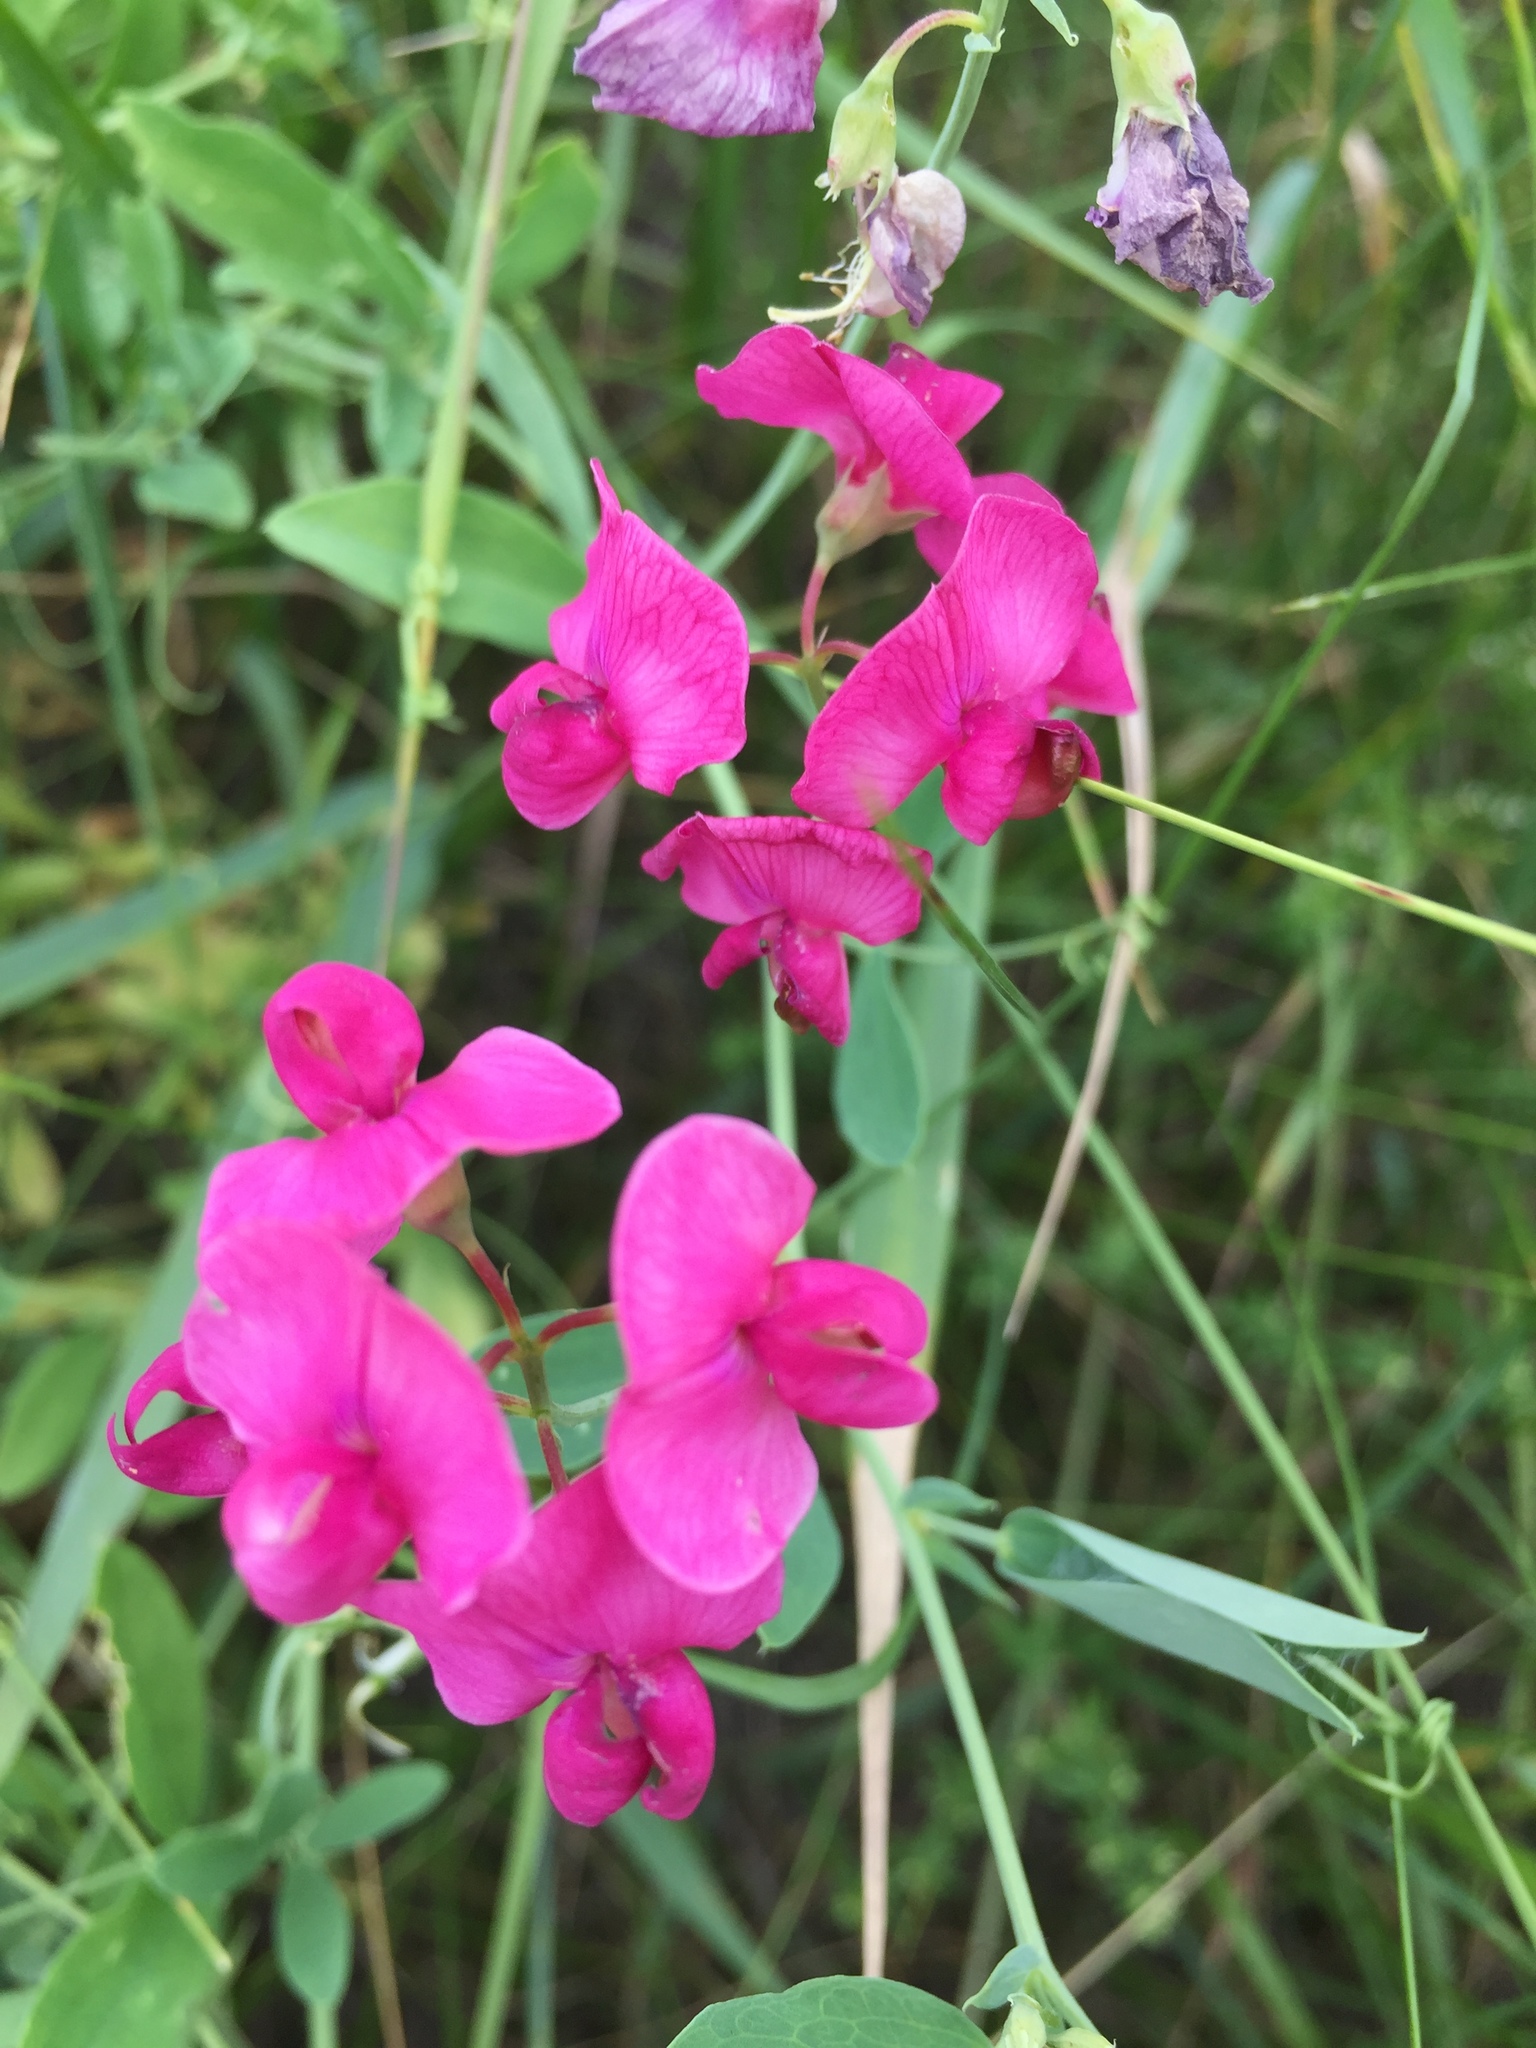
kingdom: Plantae
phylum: Tracheophyta
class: Magnoliopsida
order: Fabales
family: Fabaceae
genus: Lathyrus
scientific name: Lathyrus tuberosus
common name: Tuberous pea
